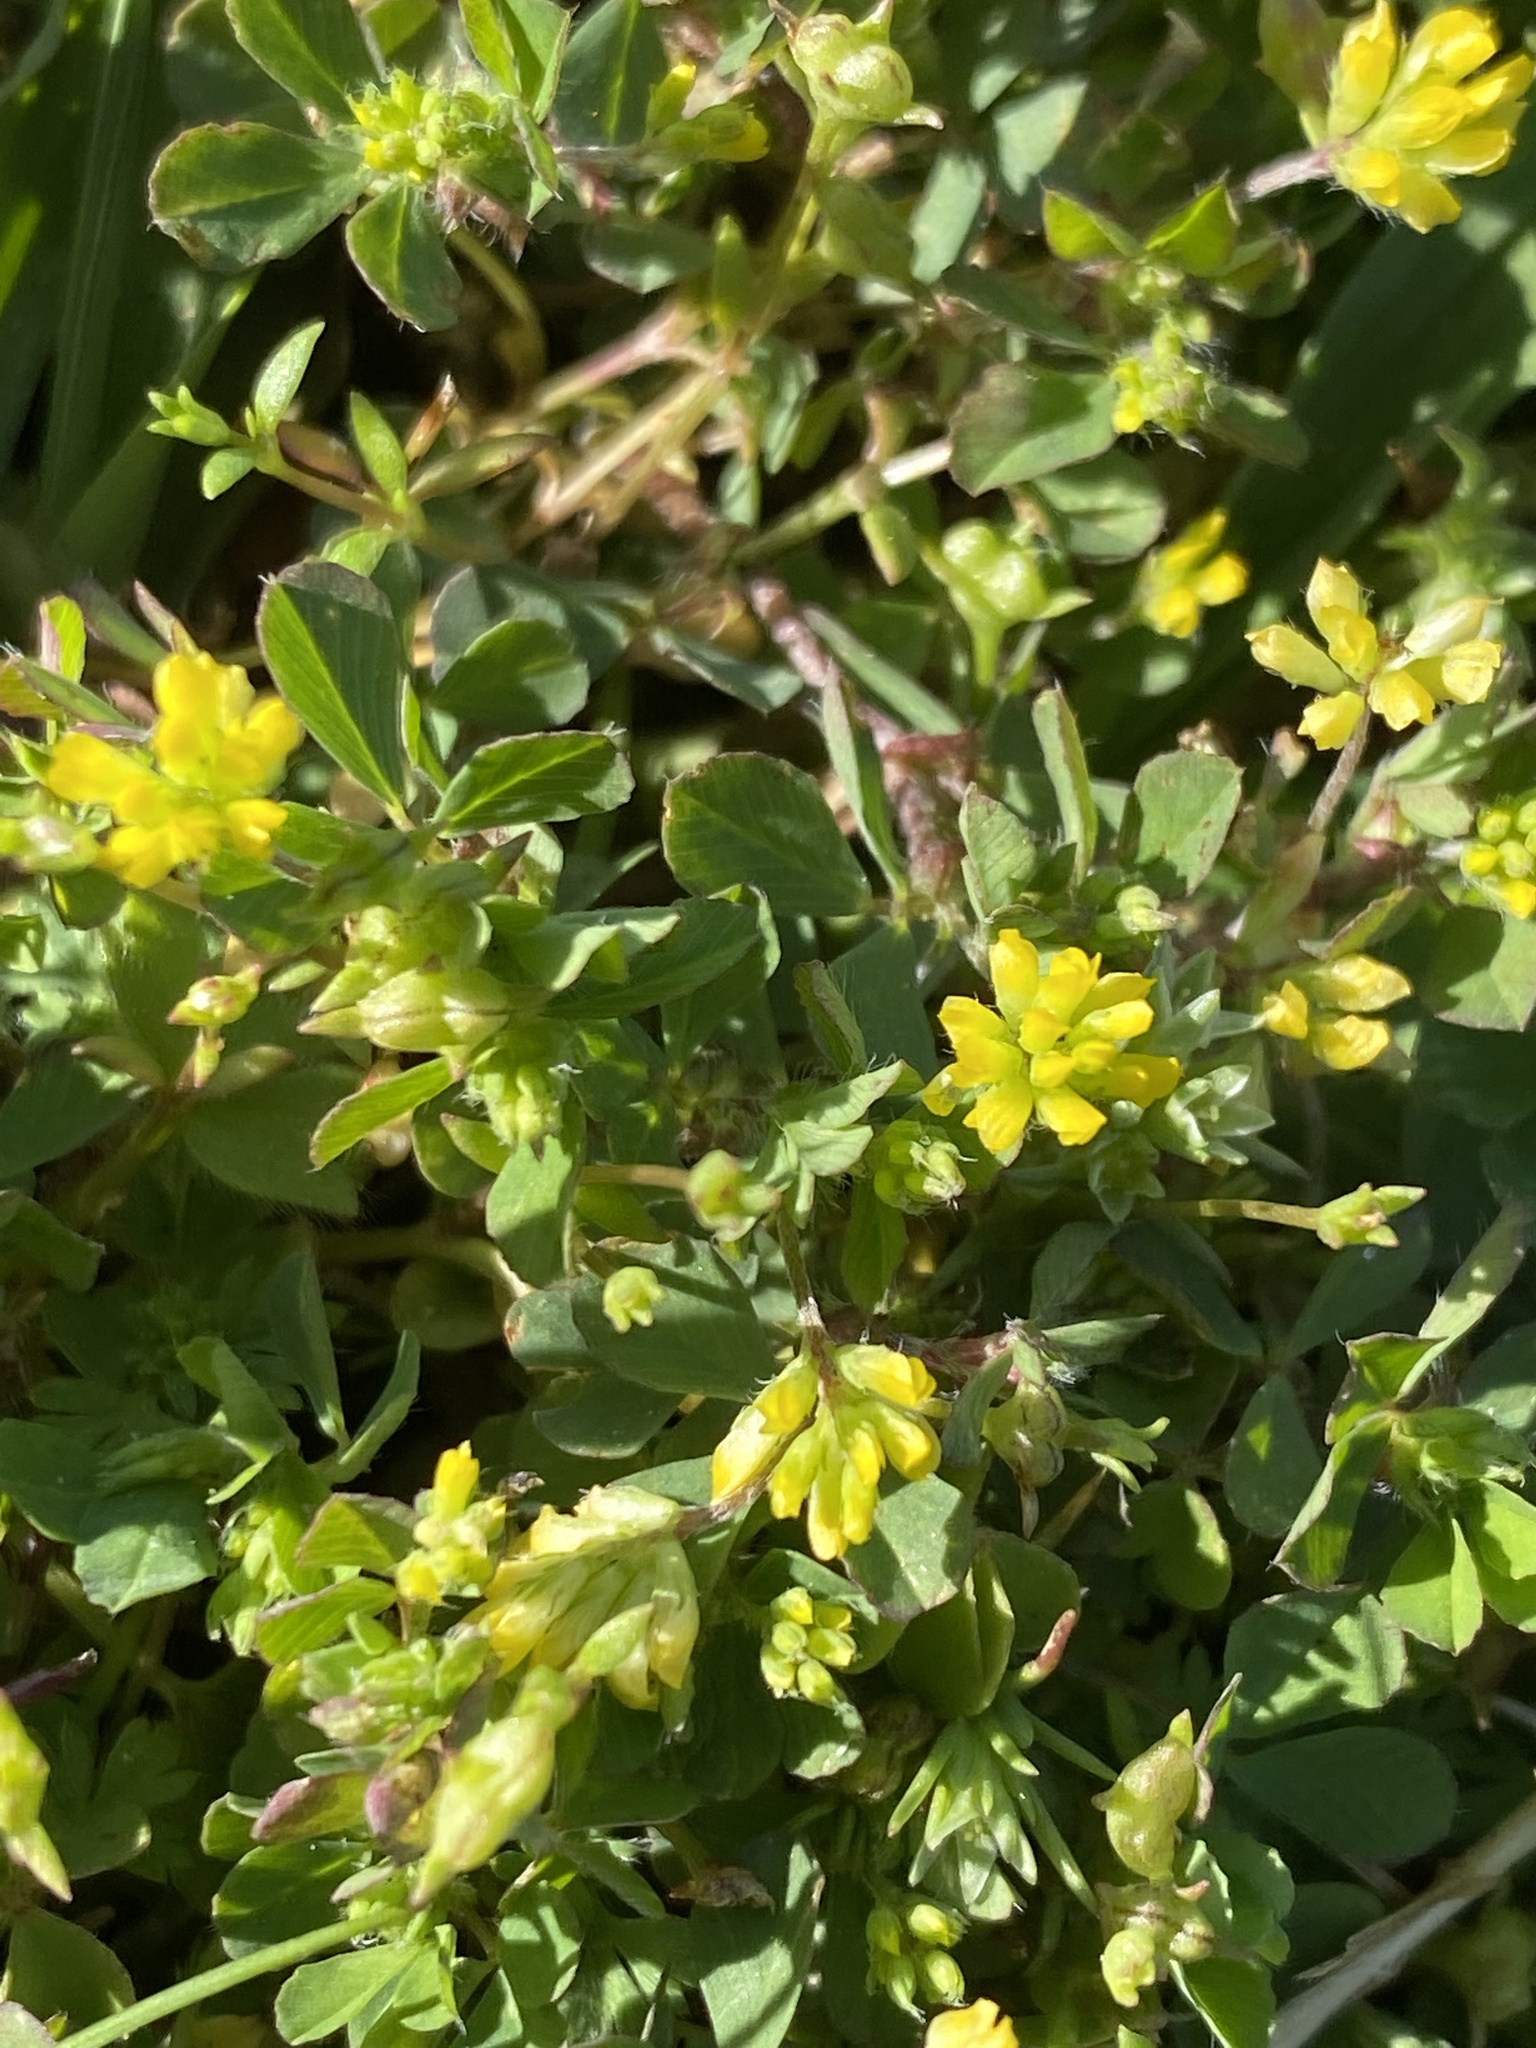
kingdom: Plantae
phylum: Tracheophyta
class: Magnoliopsida
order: Fabales
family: Fabaceae
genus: Trifolium
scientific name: Trifolium dubium
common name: Suckling clover
